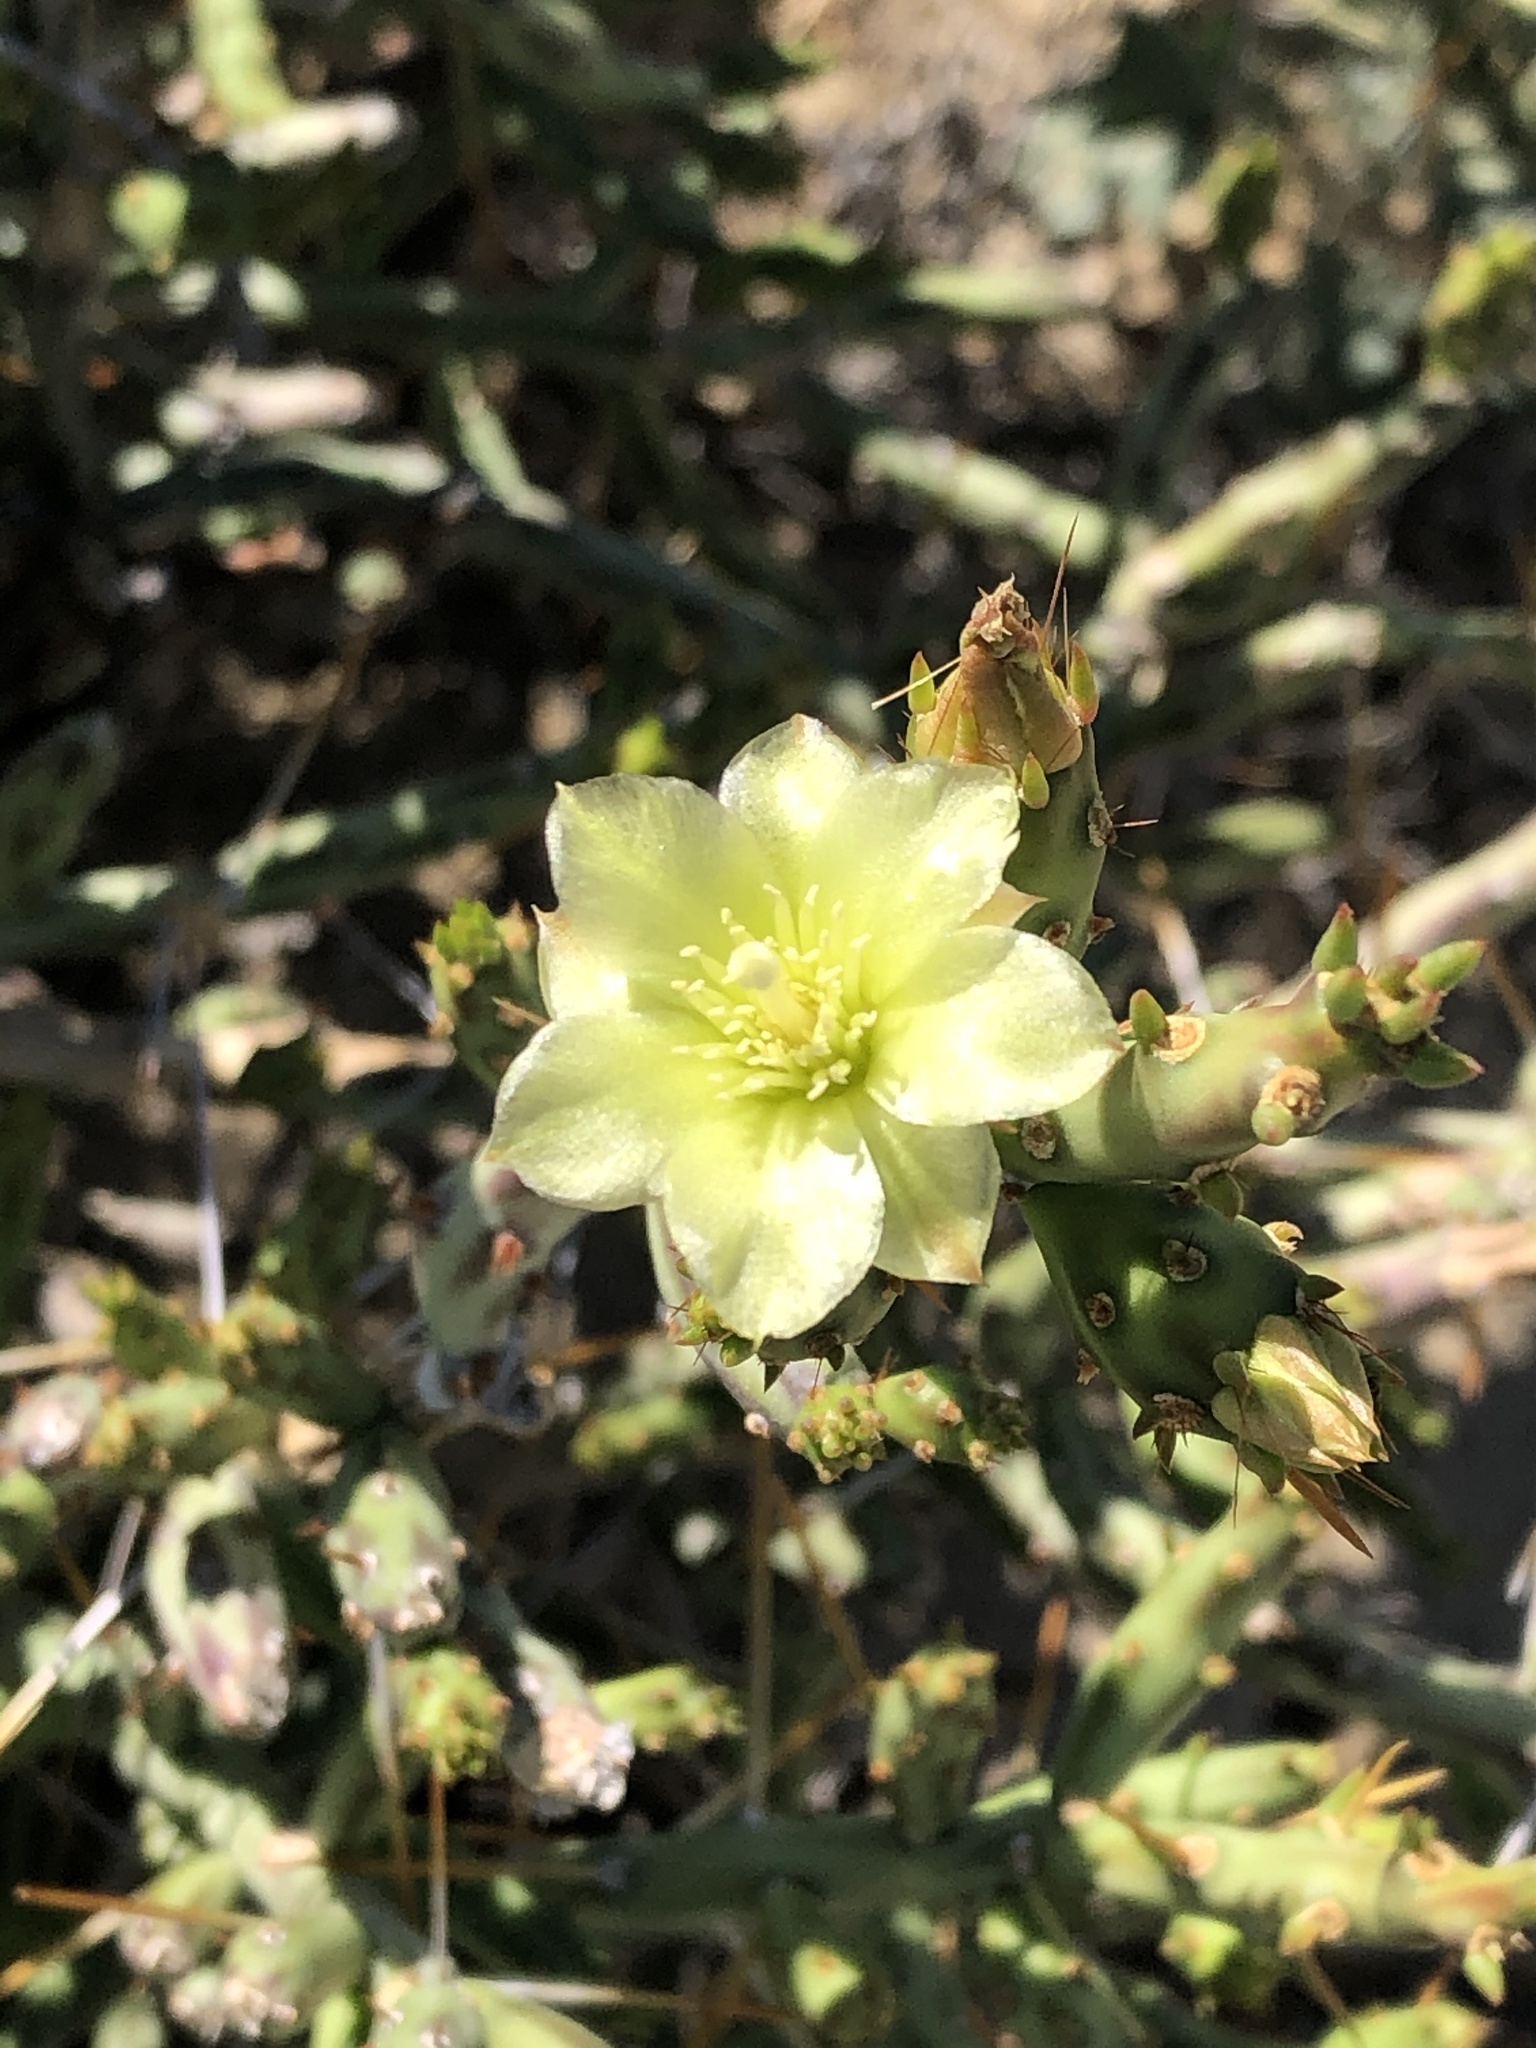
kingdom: Plantae
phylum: Tracheophyta
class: Magnoliopsida
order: Caryophyllales
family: Cactaceae
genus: Cylindropuntia
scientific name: Cylindropuntia leptocaulis
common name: Christmas cactus
